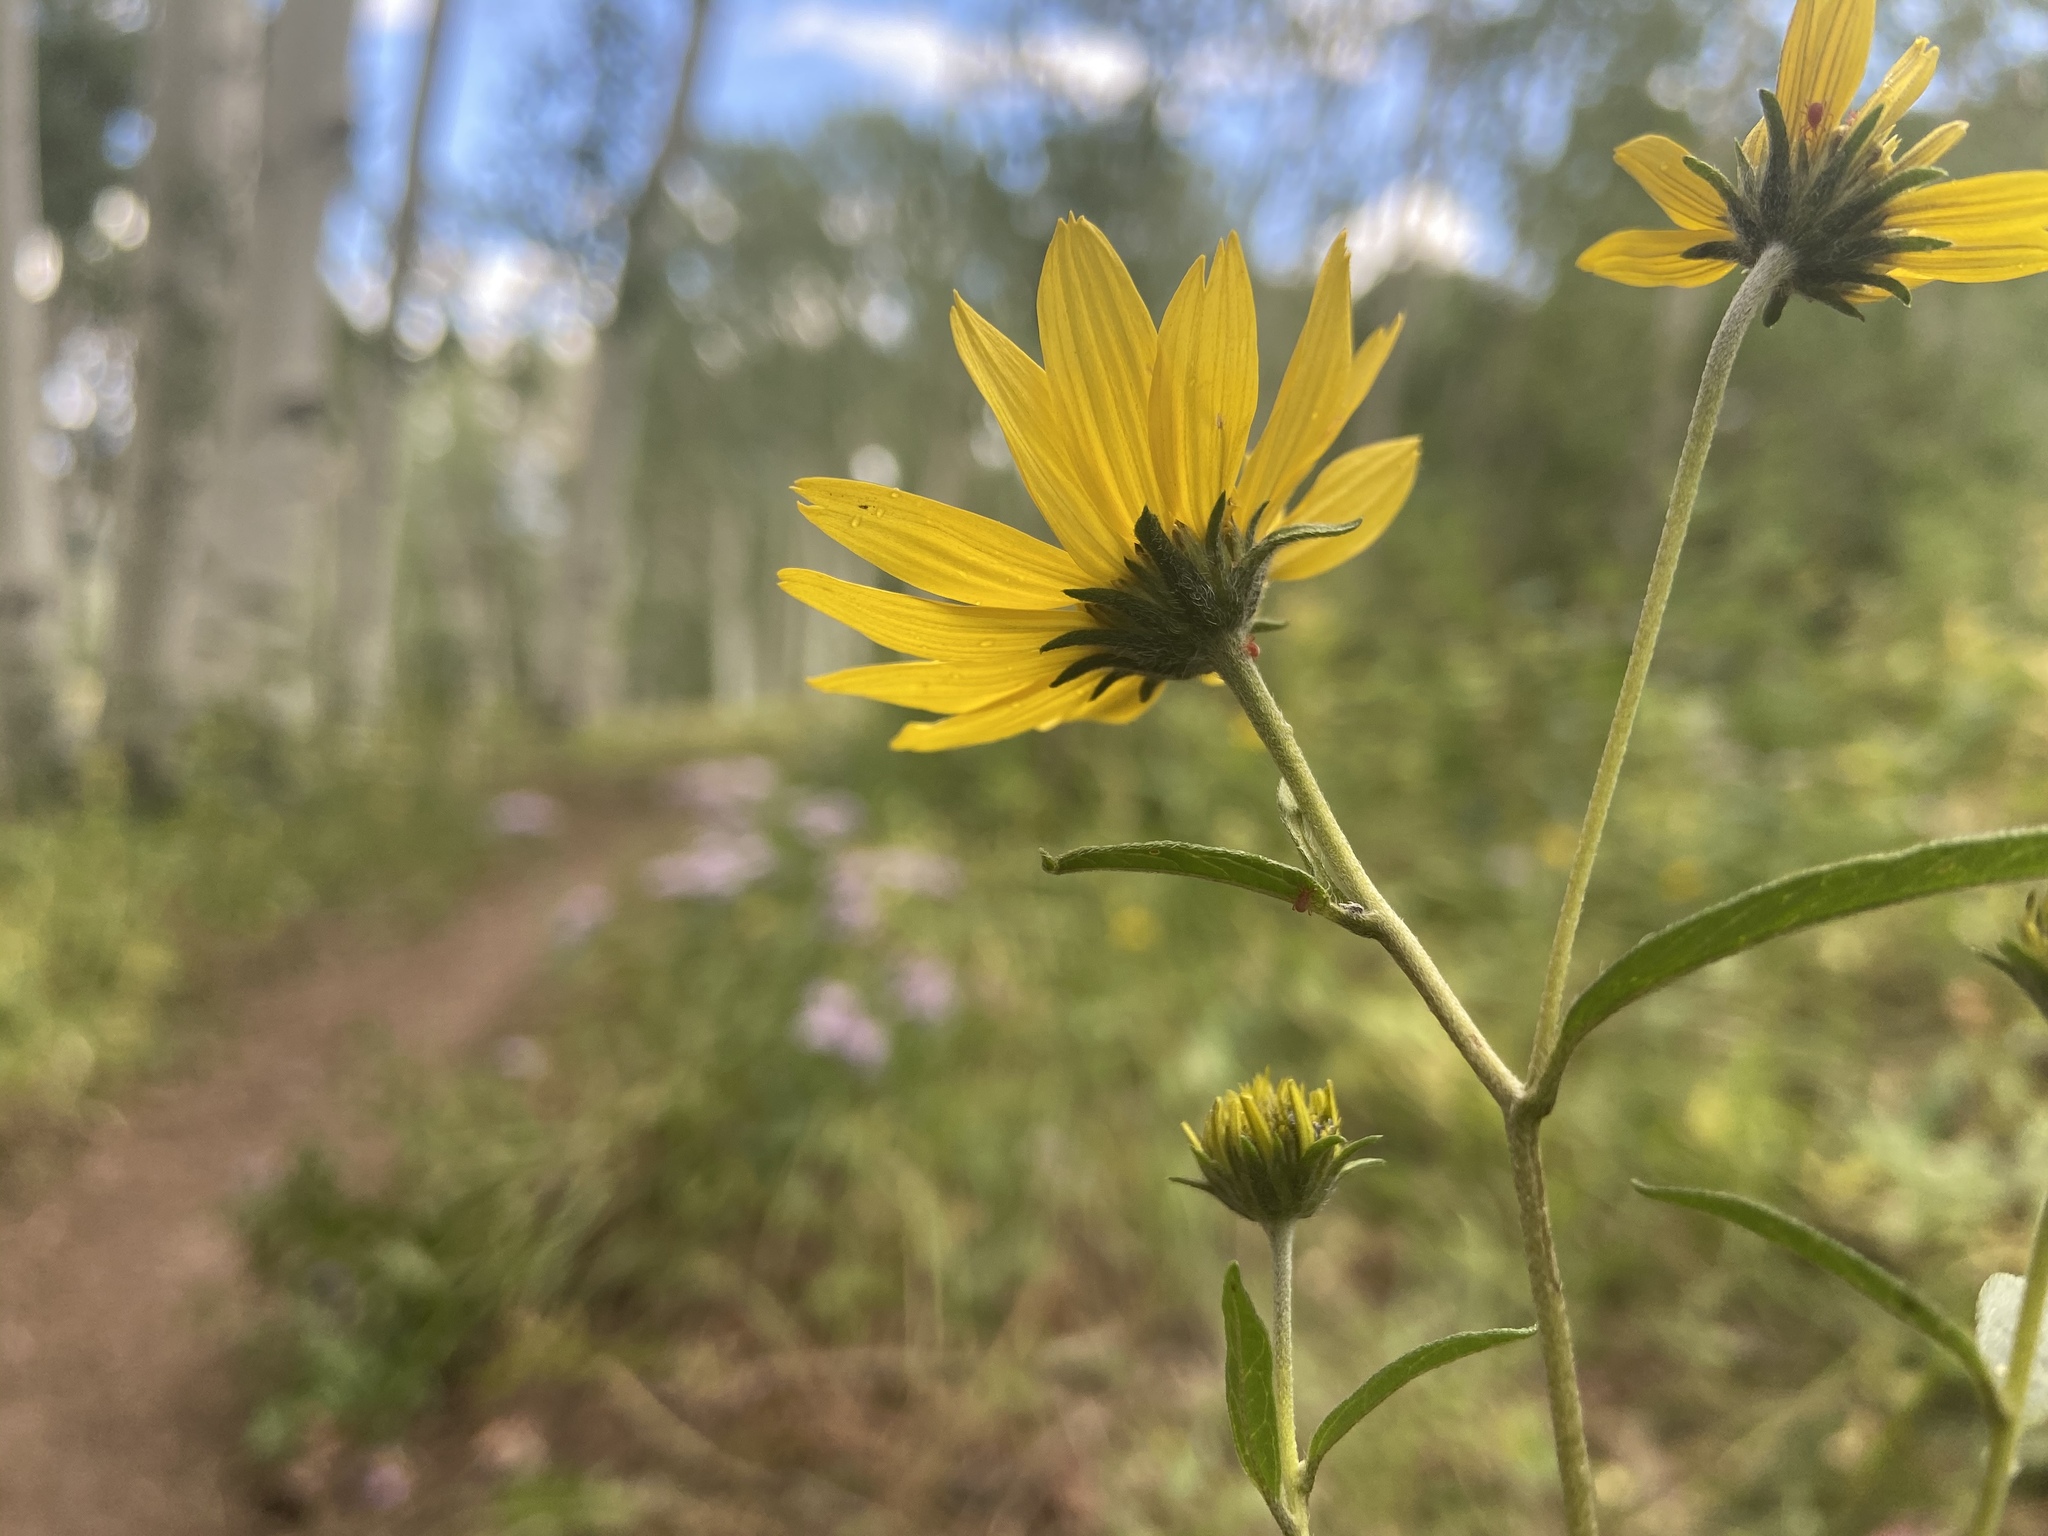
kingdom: Plantae
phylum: Tracheophyta
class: Magnoliopsida
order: Asterales
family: Asteraceae
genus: Heliomeris
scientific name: Heliomeris multiflora
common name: Showy goldeneye
